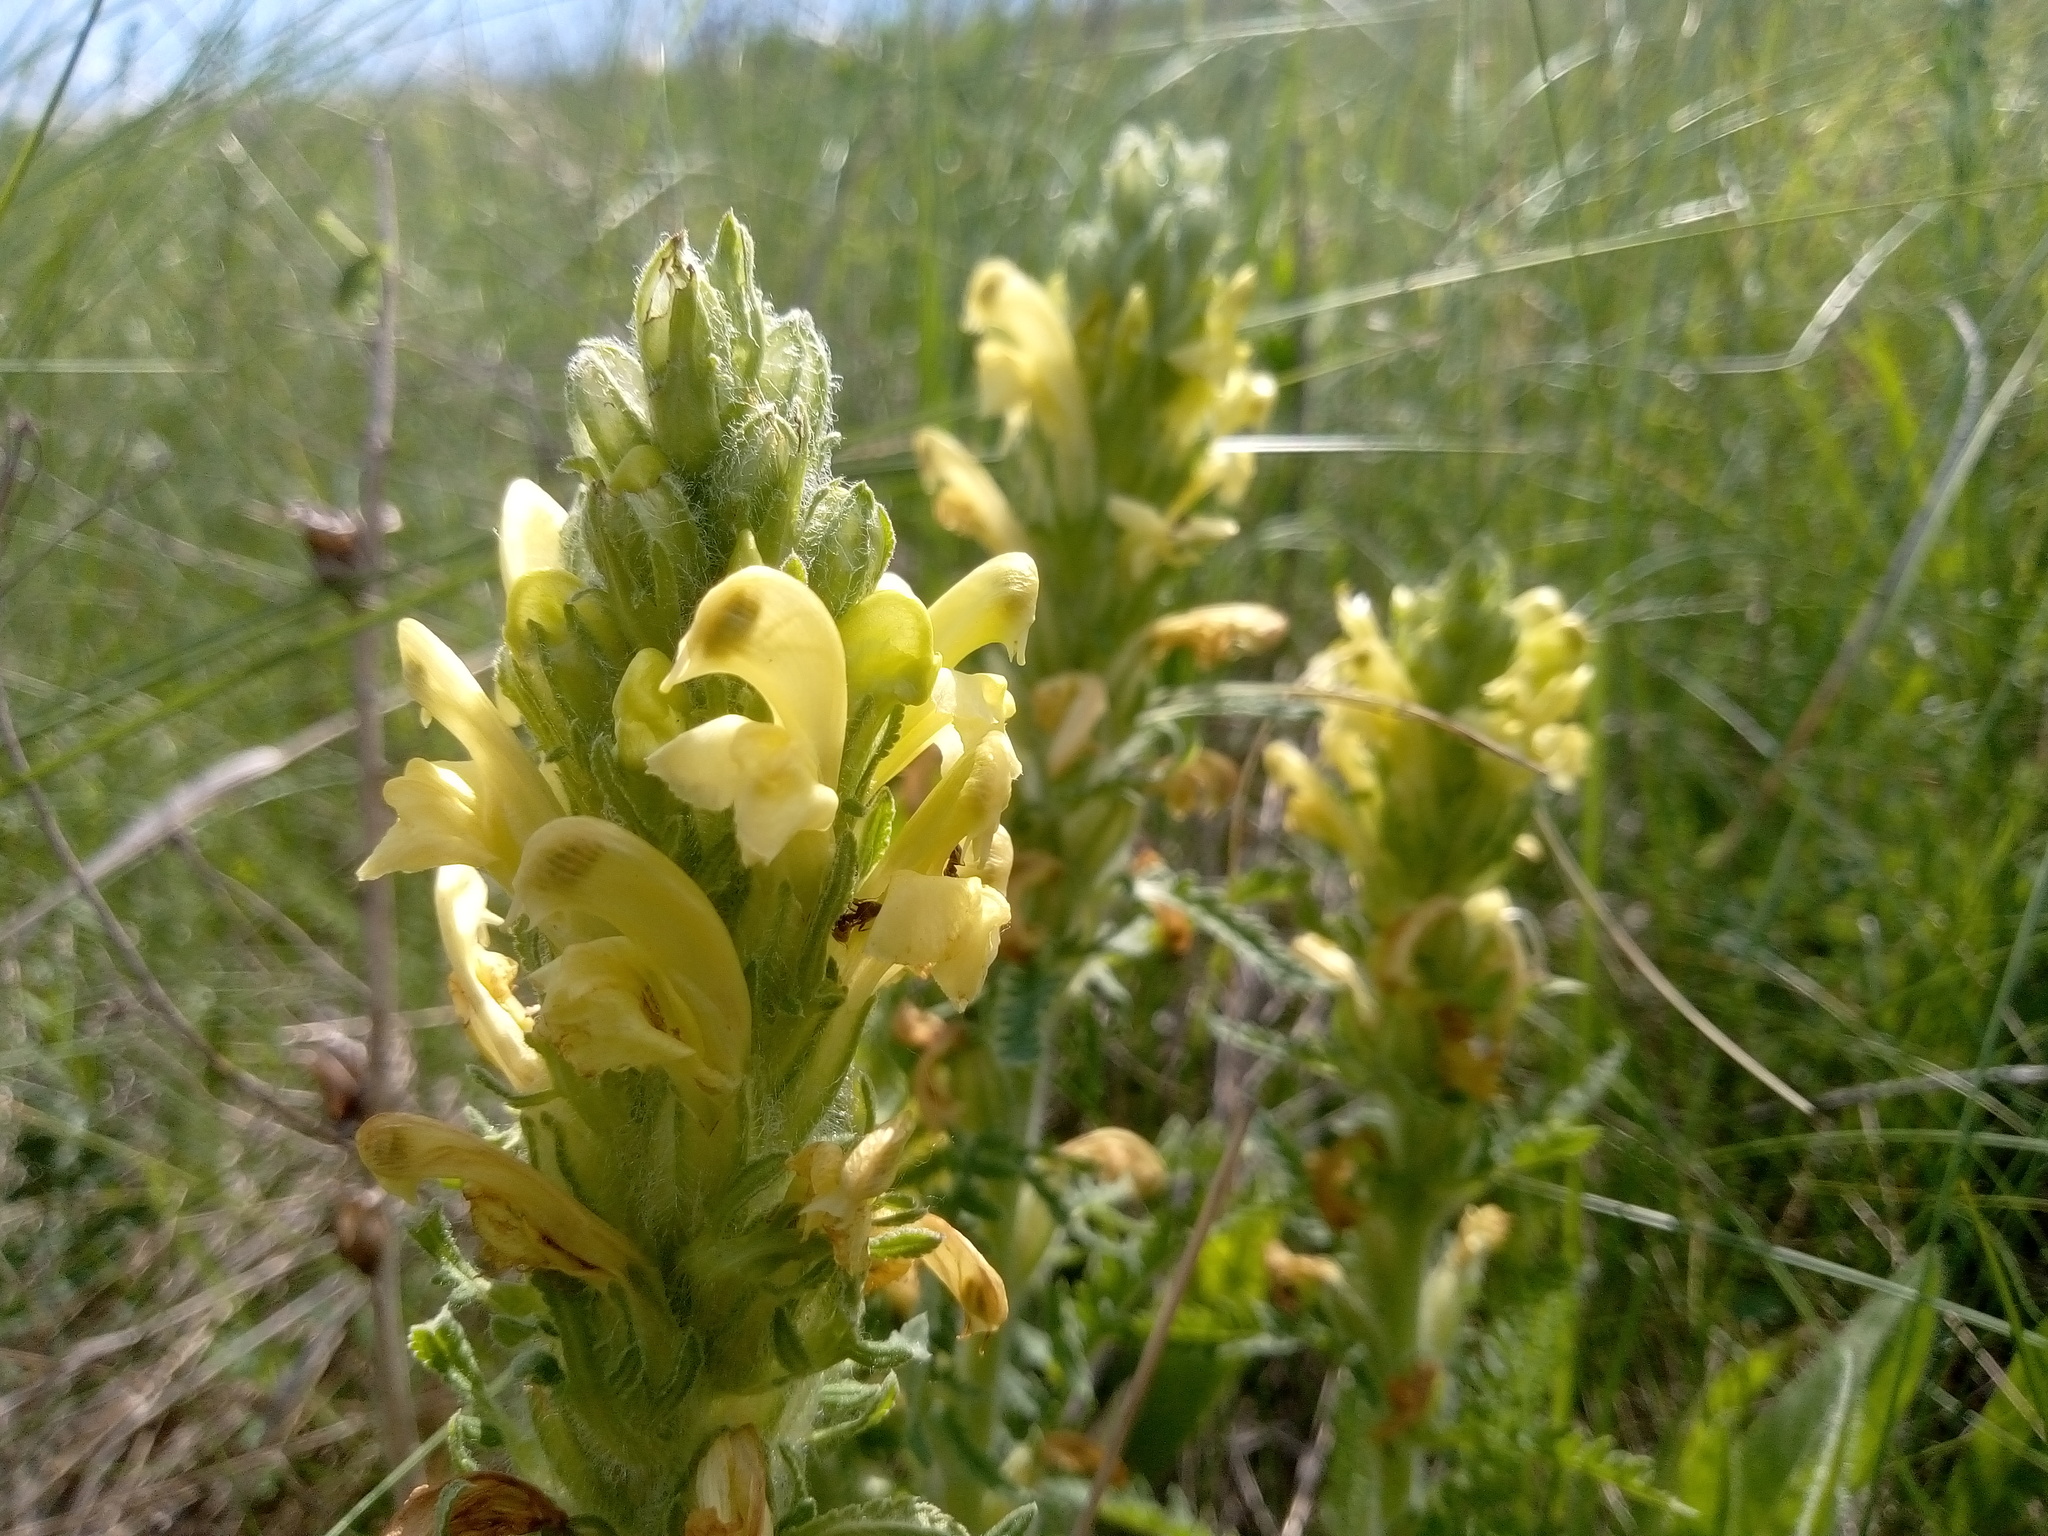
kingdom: Plantae
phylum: Tracheophyta
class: Magnoliopsida
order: Lamiales
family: Orobanchaceae
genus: Pedicularis
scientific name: Pedicularis kaufmannii
